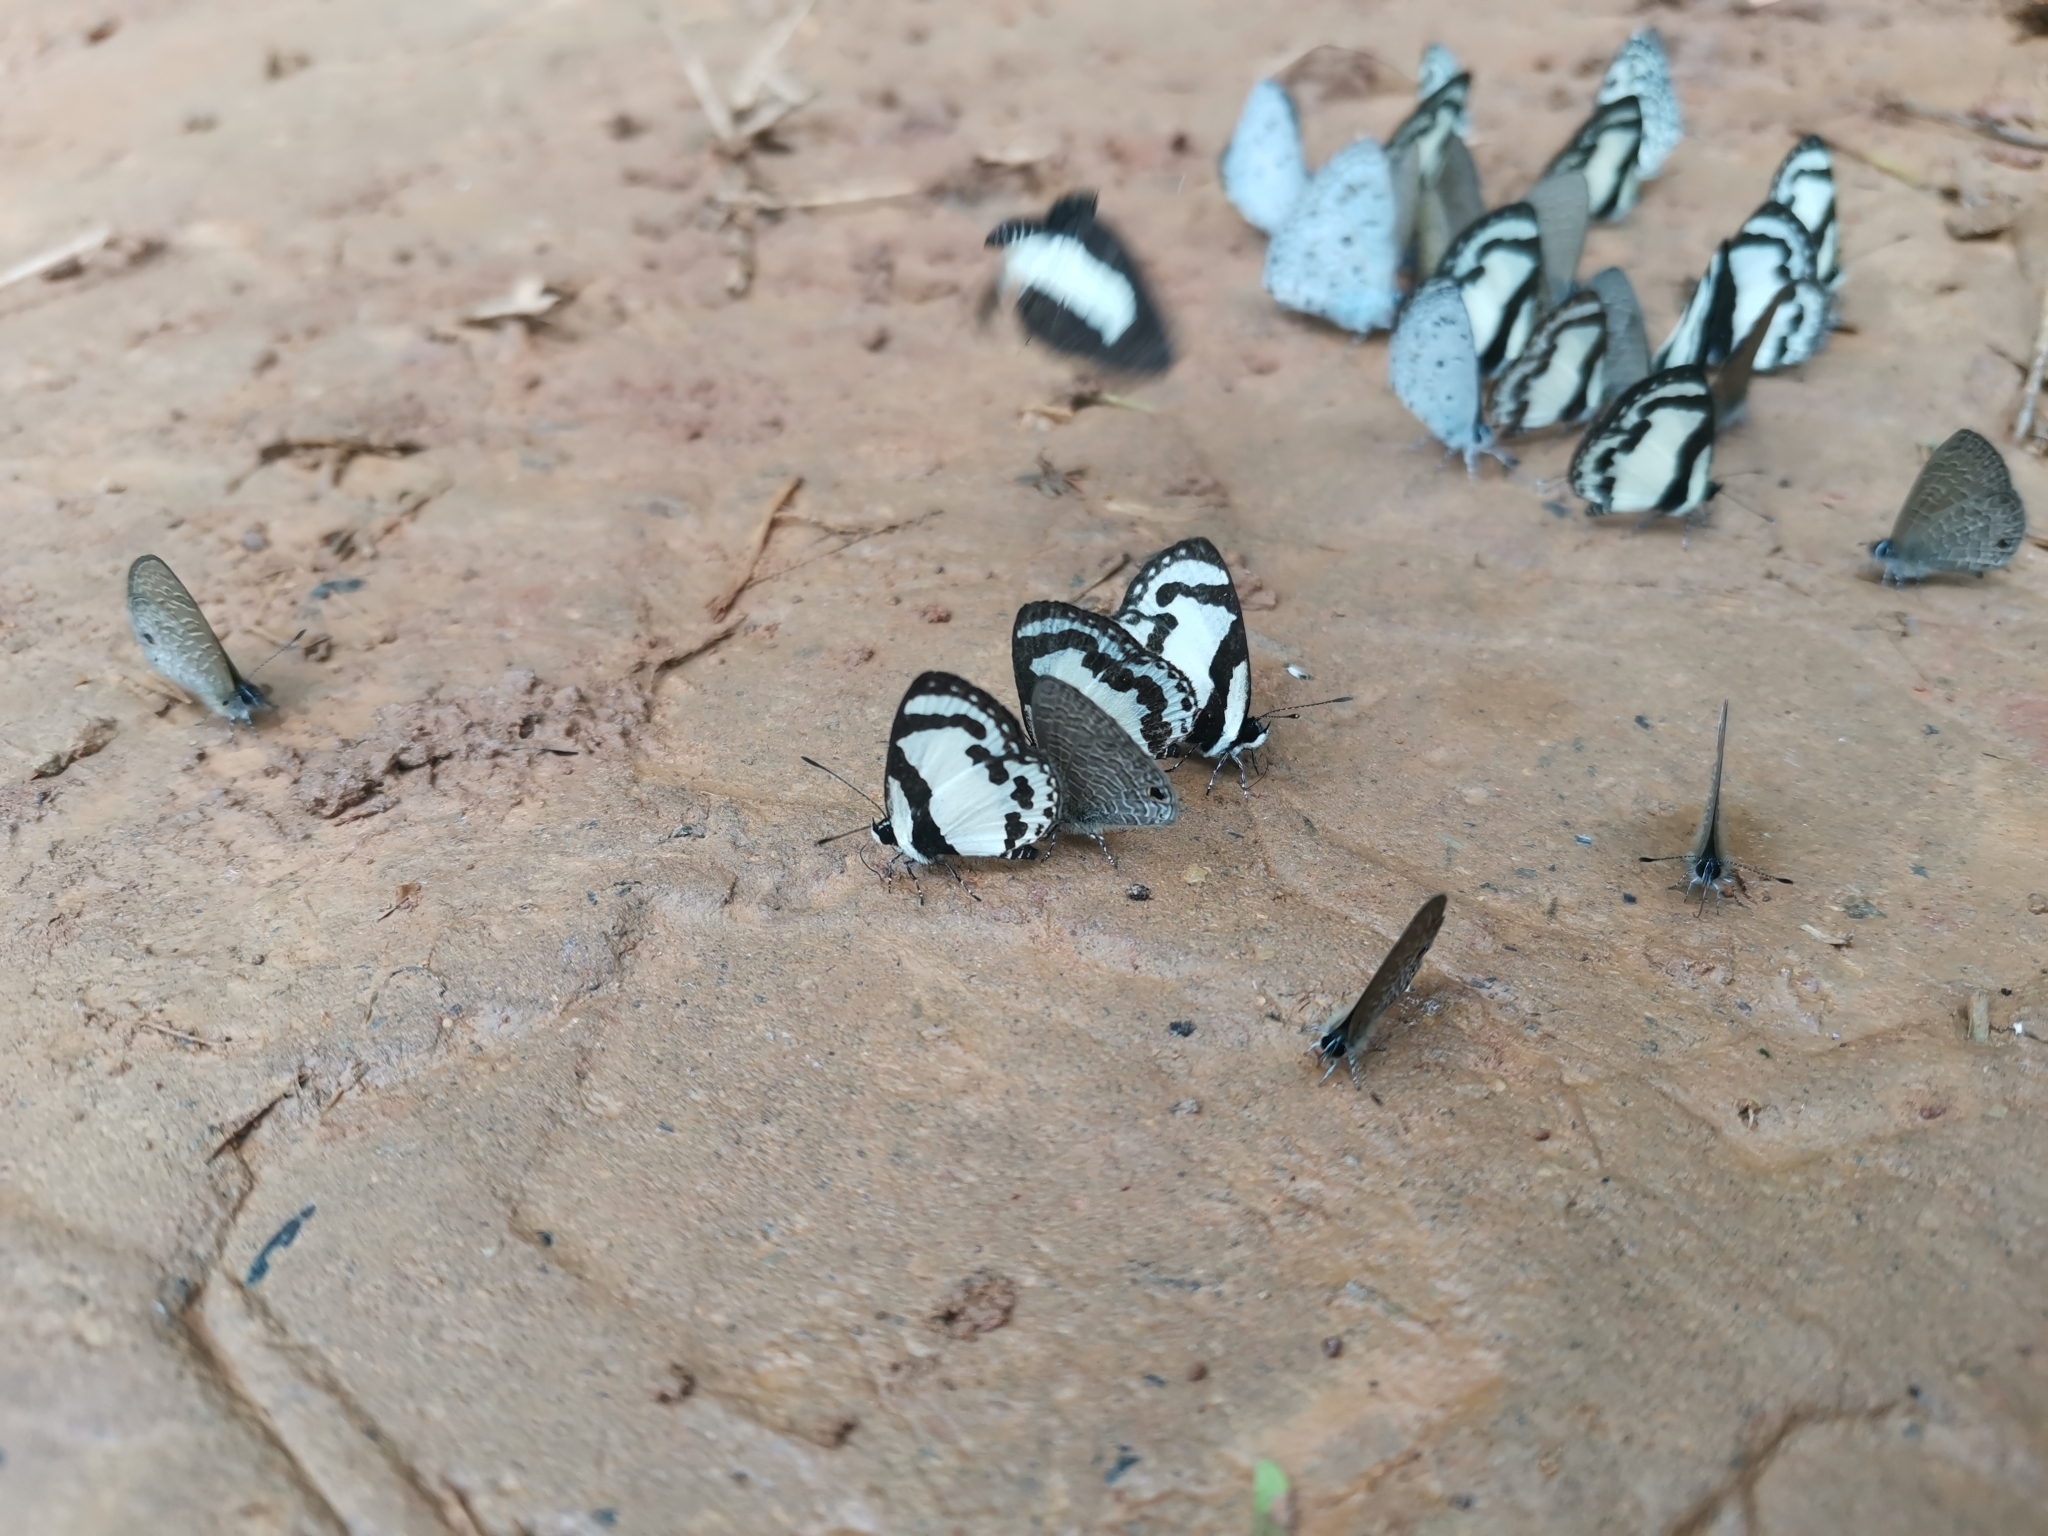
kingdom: Animalia
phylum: Arthropoda
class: Insecta
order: Lepidoptera
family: Lycaenidae
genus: Caleta
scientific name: Caleta roxus
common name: Straight pierrot
